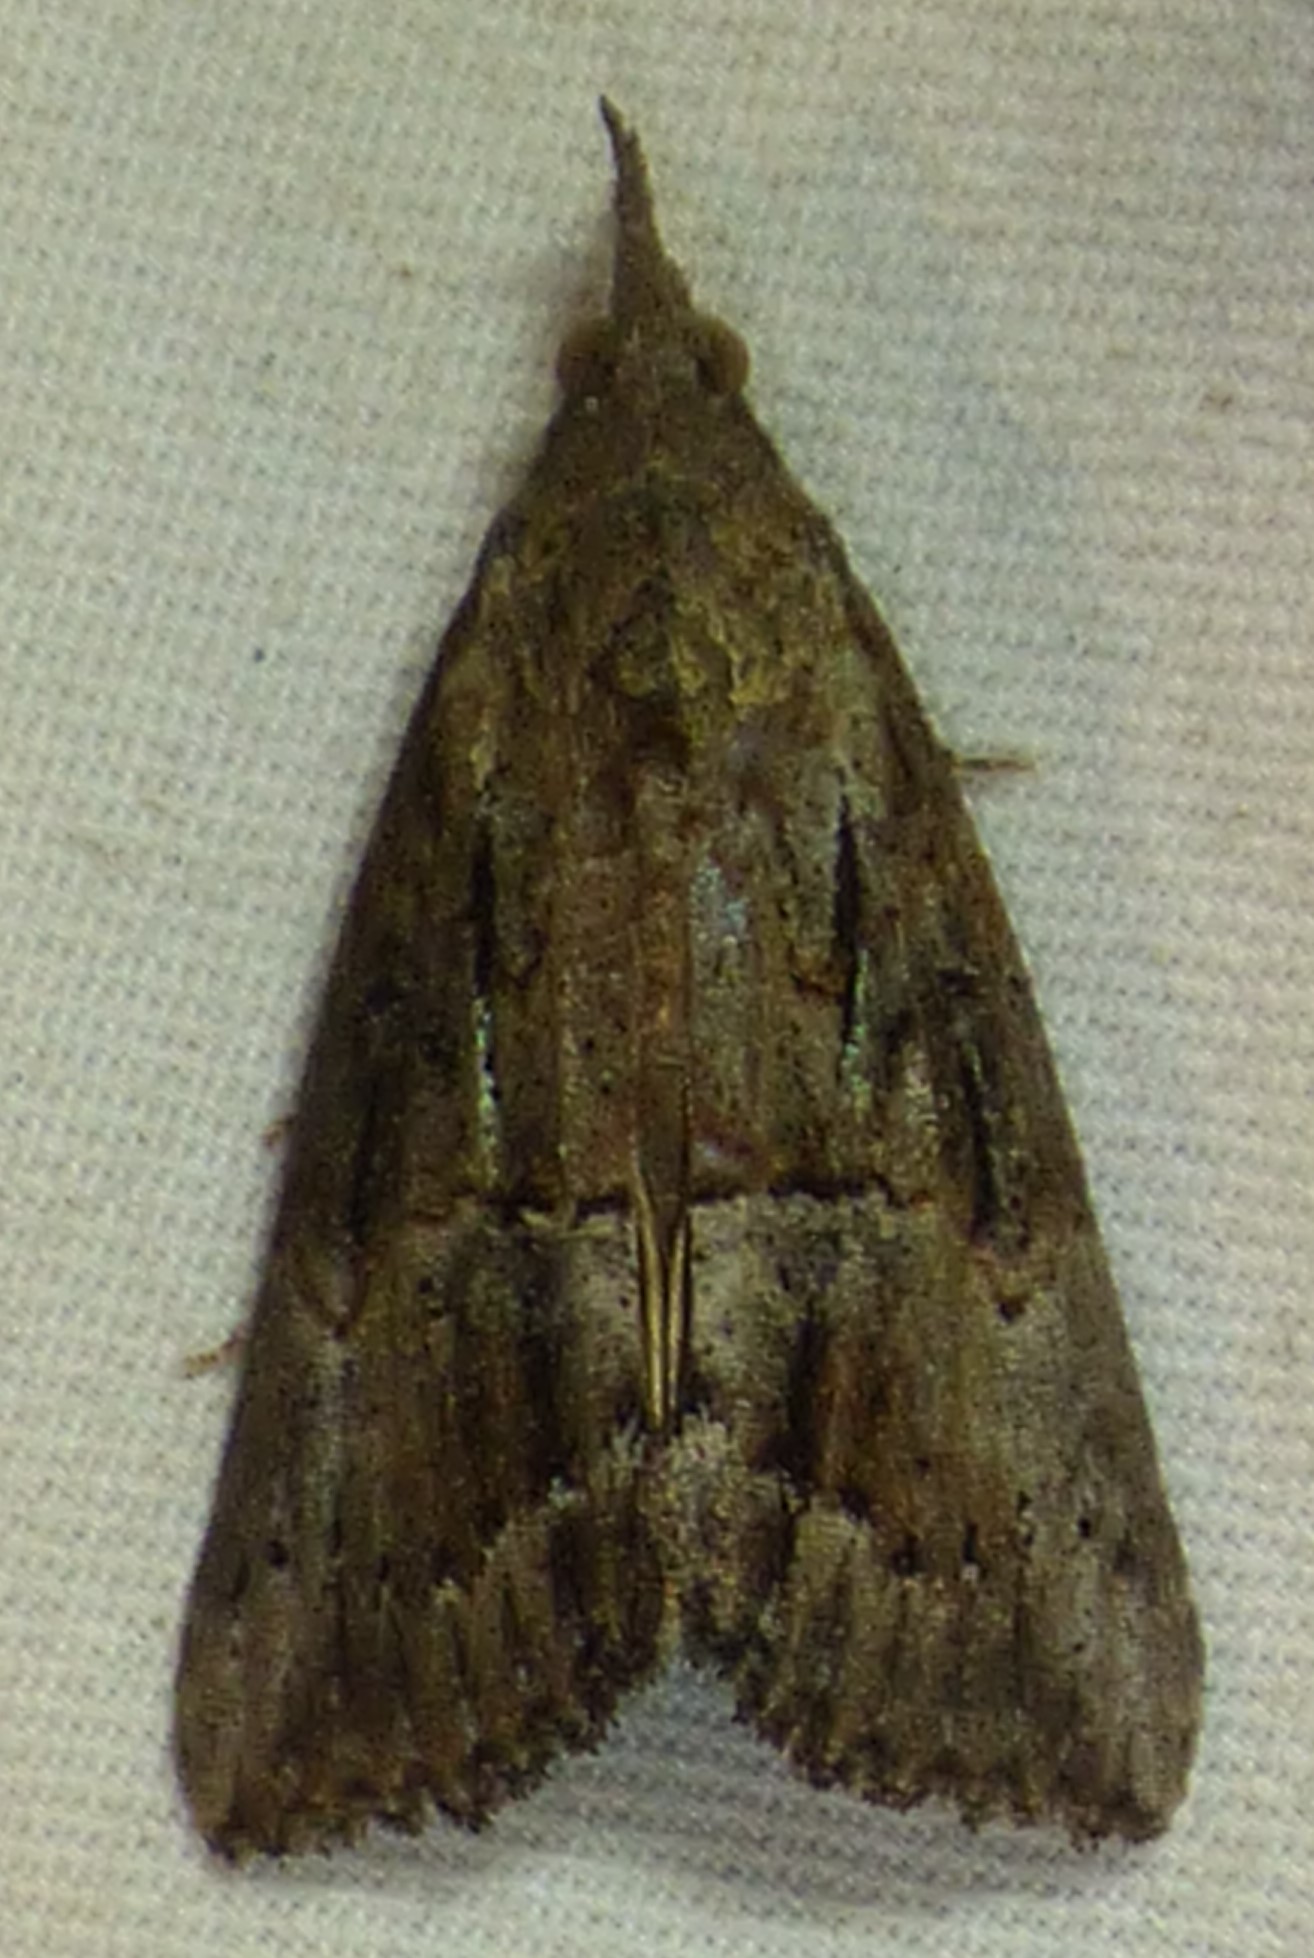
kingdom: Animalia
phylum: Arthropoda
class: Insecta
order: Lepidoptera
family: Erebidae
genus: Hypena
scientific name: Hypena scabra
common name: Green cloverworm
